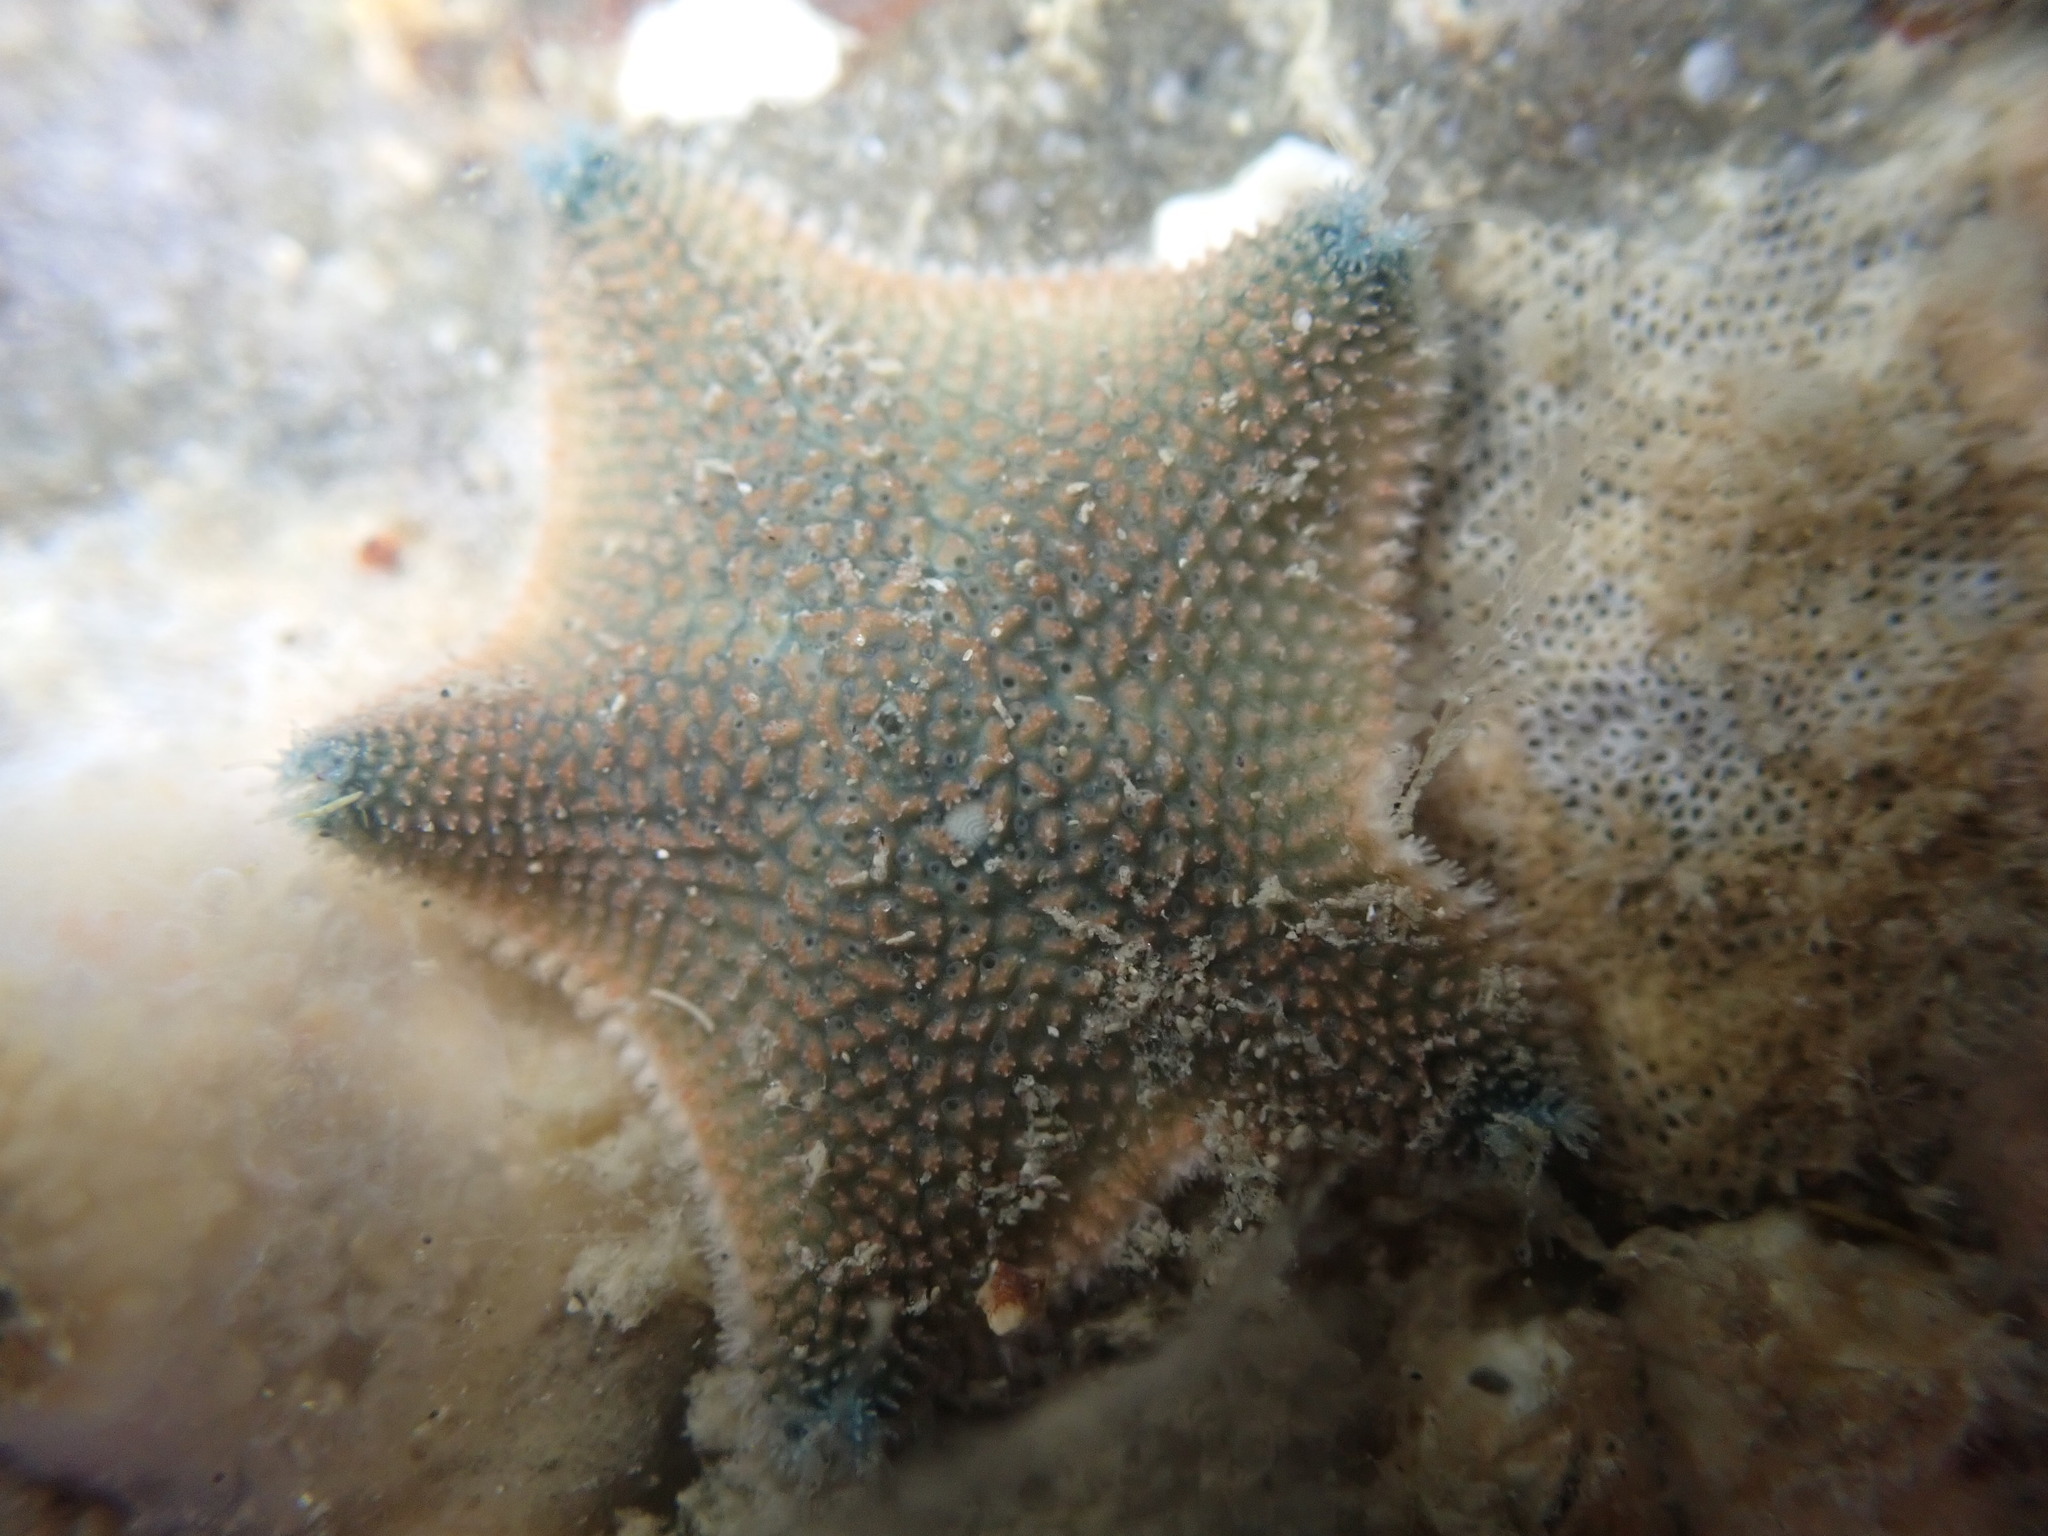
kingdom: Animalia
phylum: Echinodermata
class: Asteroidea
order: Valvatida
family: Asterinidae
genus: Patiriella
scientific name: Patiriella regularis
